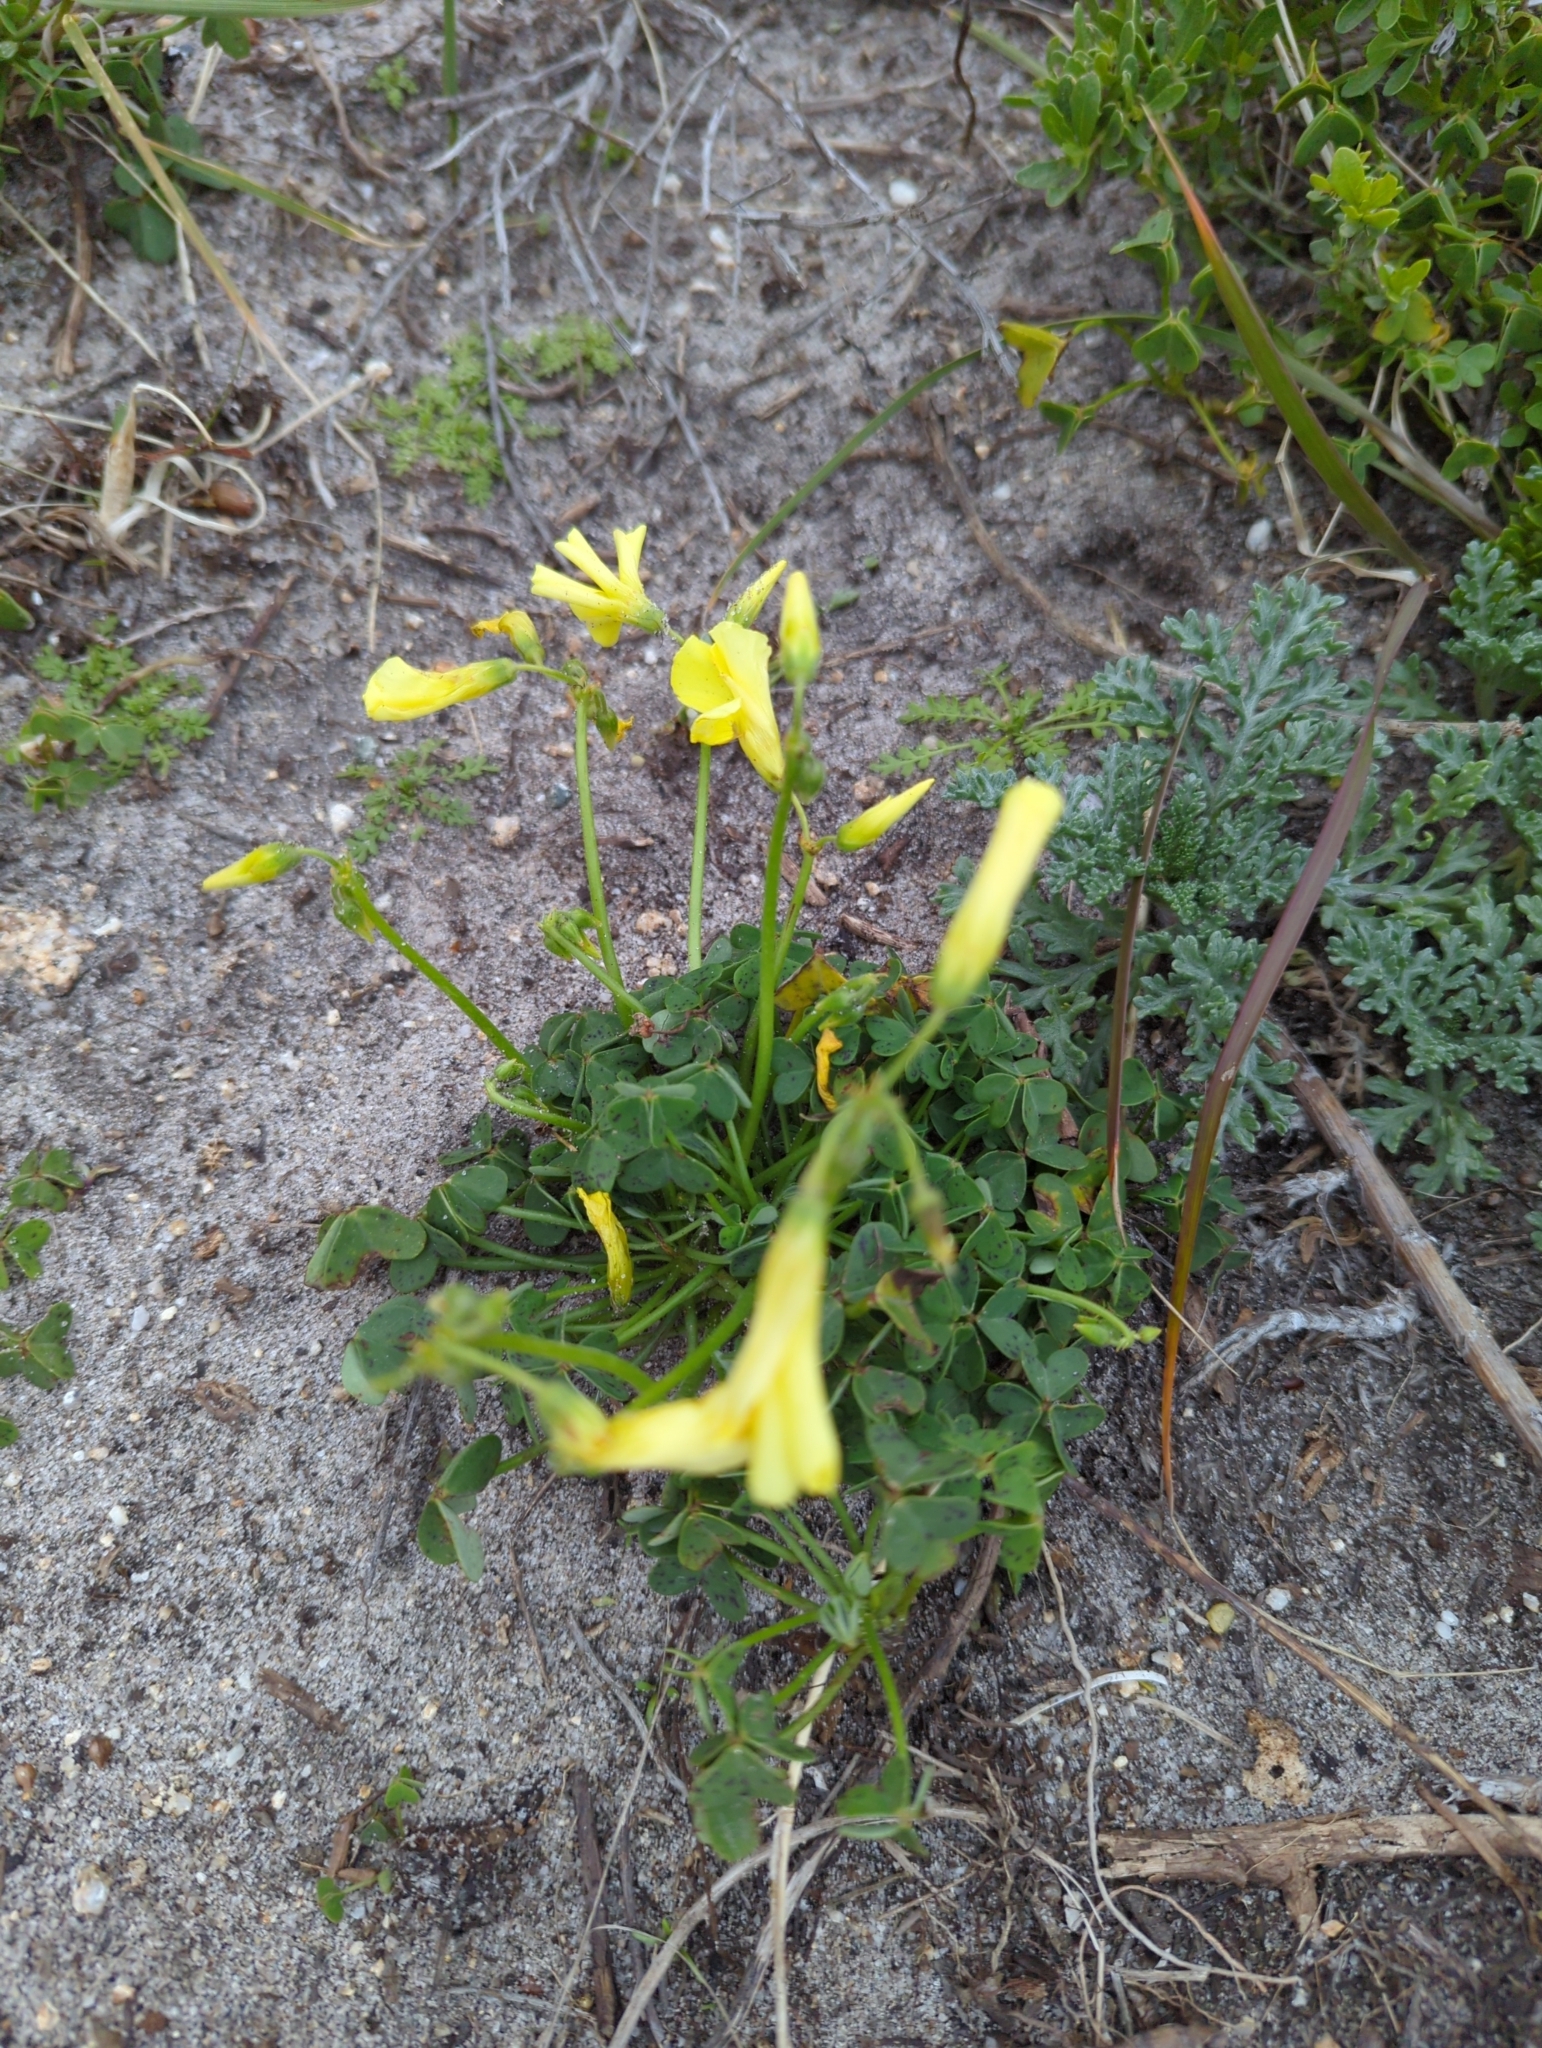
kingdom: Plantae
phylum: Tracheophyta
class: Magnoliopsida
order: Oxalidales
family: Oxalidaceae
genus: Oxalis
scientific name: Oxalis pes-caprae
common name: Bermuda-buttercup
